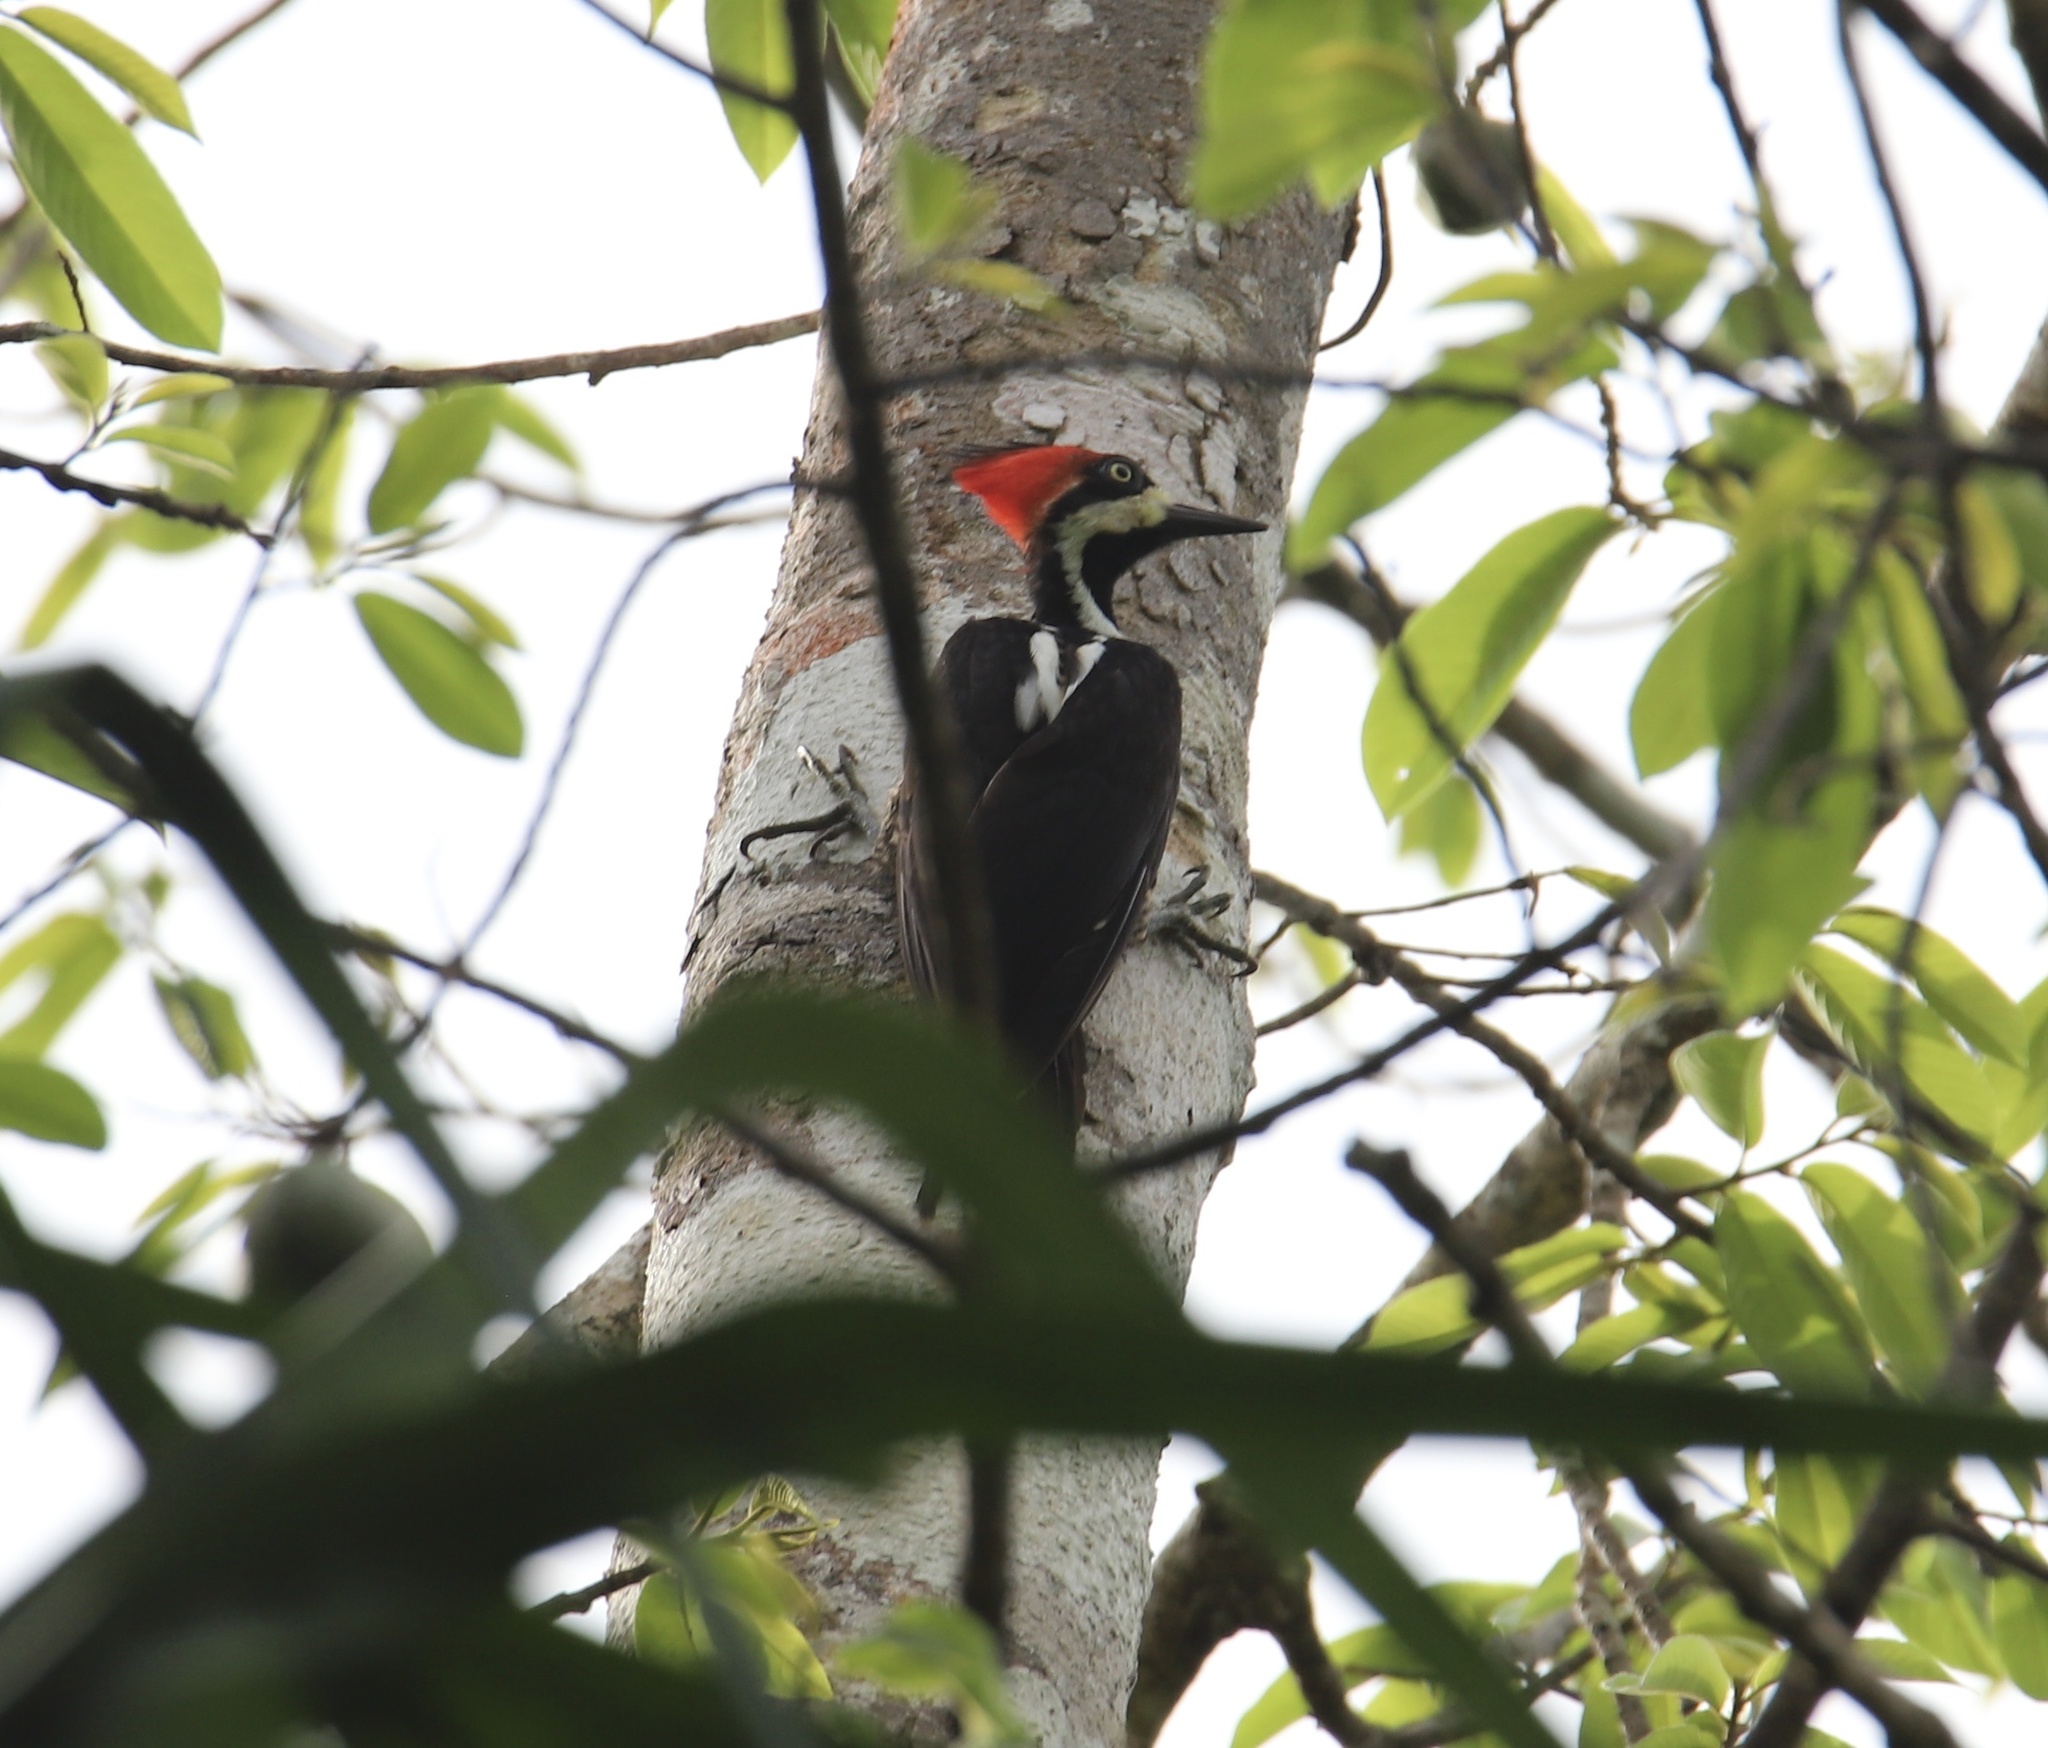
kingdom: Animalia
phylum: Chordata
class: Aves
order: Piciformes
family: Picidae
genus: Campephilus
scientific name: Campephilus melanoleucos
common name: Crimson-crested woodpecker
